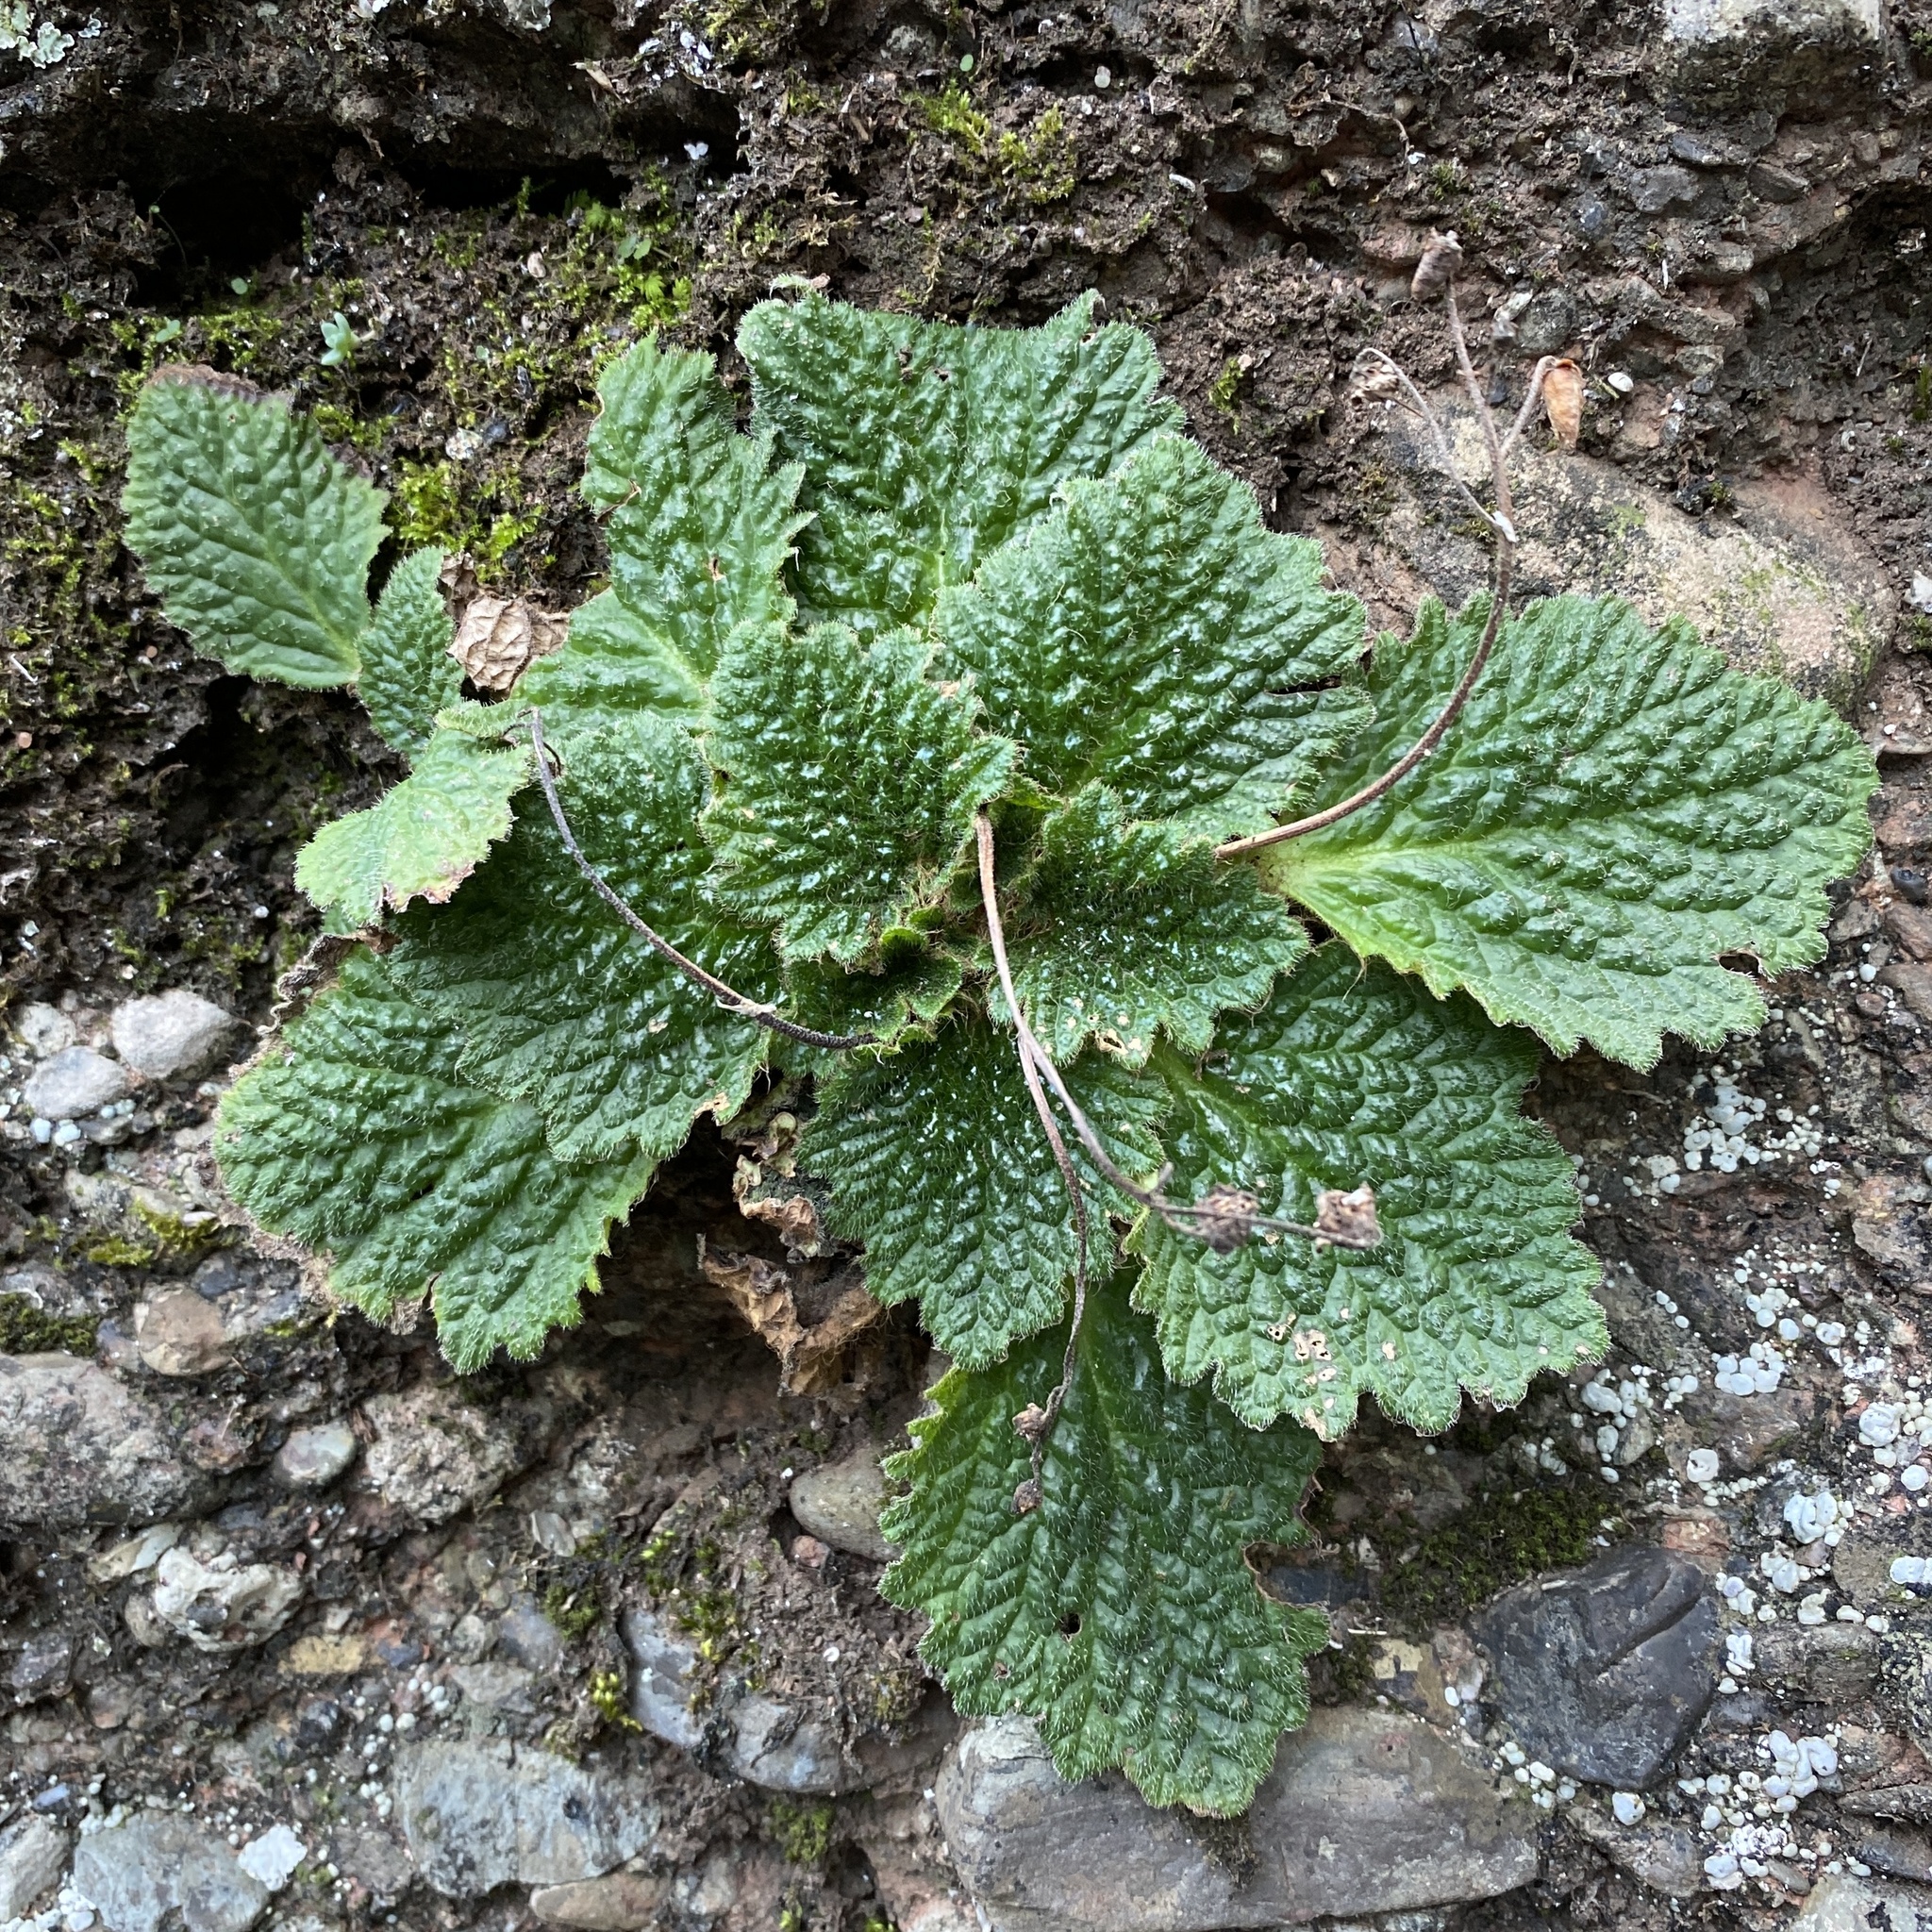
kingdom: Plantae
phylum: Tracheophyta
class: Magnoliopsida
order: Lamiales
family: Gesneriaceae
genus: Ramonda
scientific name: Ramonda myconi
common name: Pyrenean-violet
